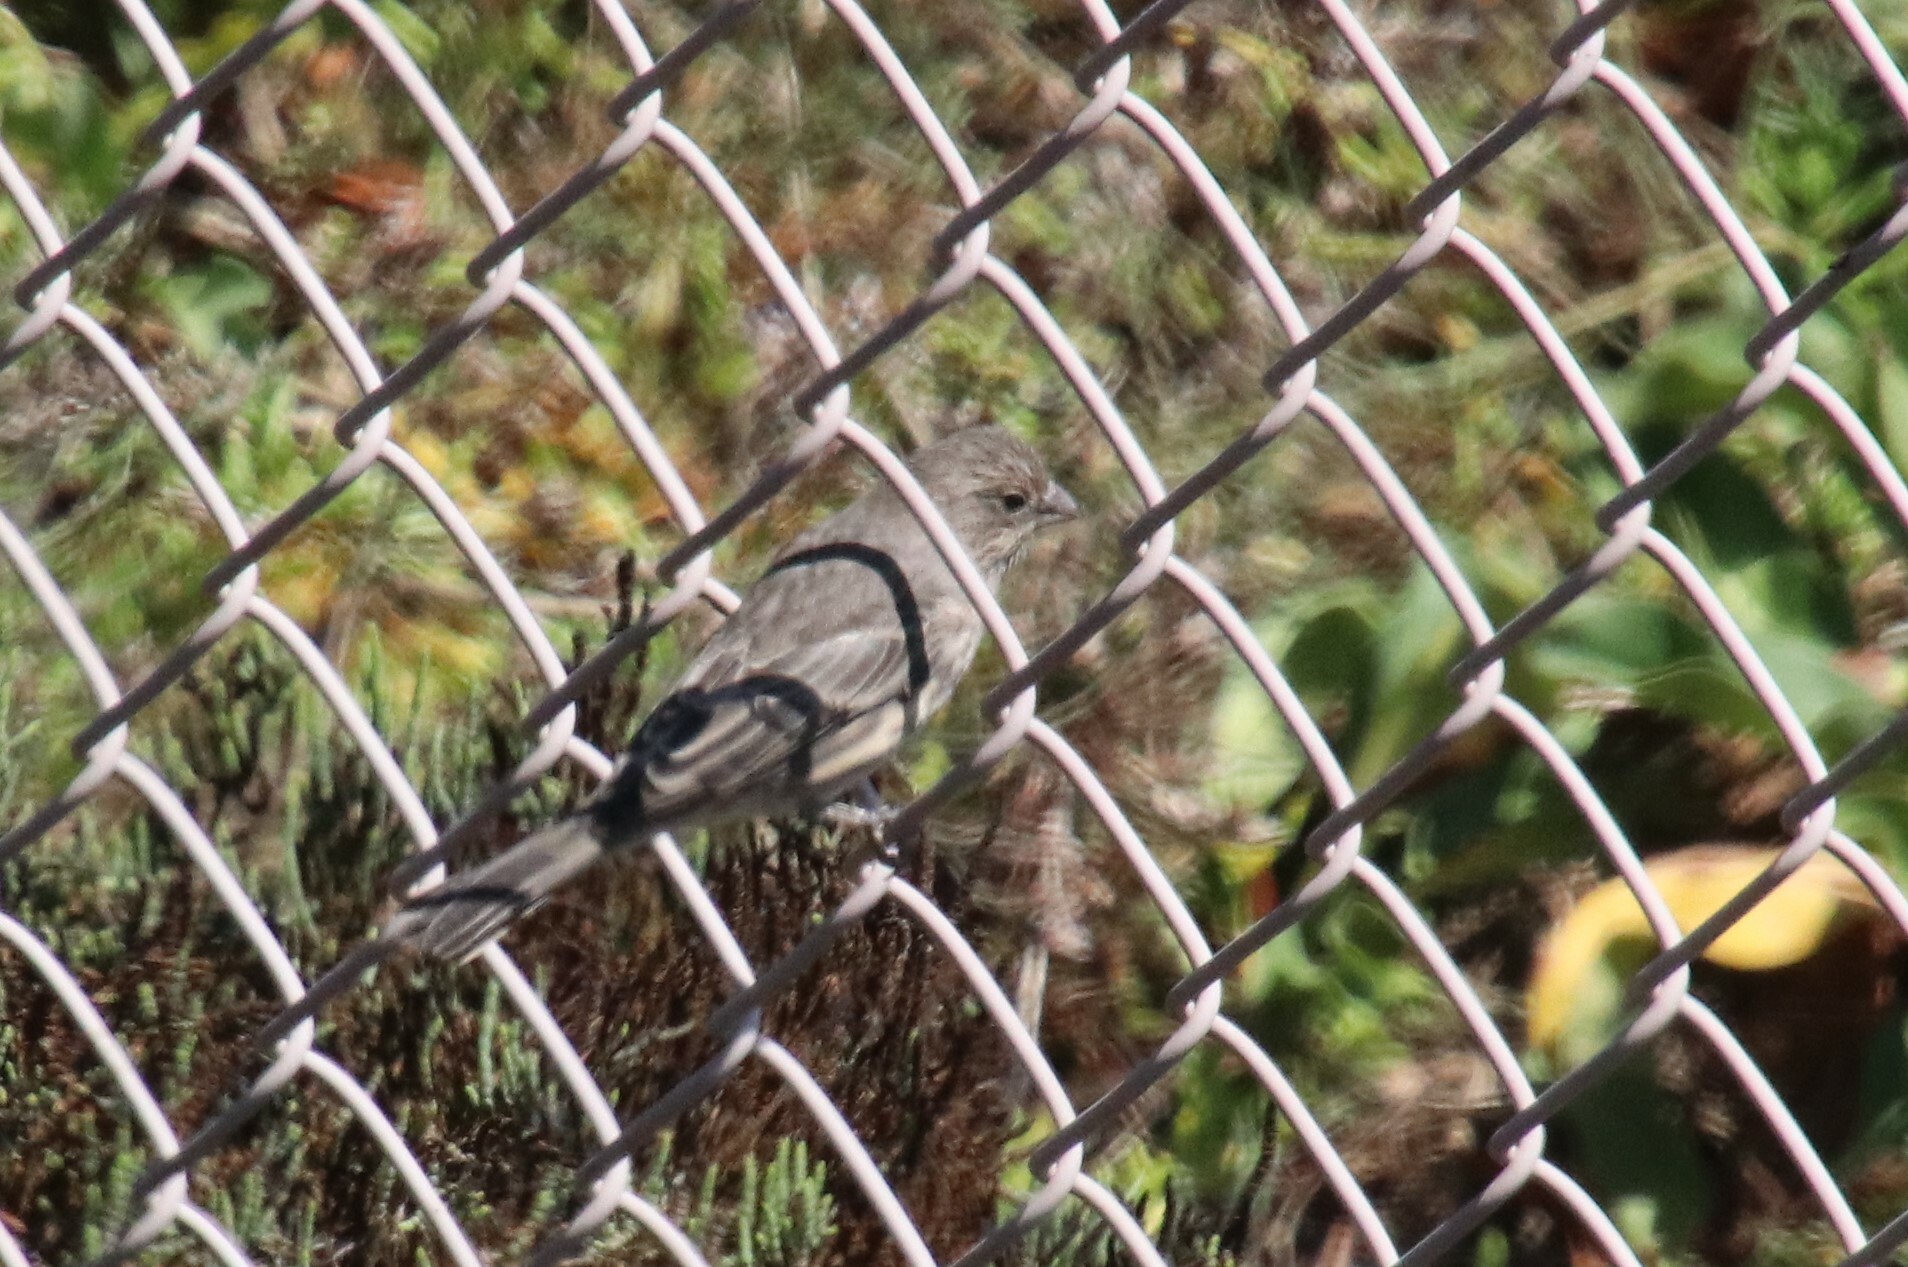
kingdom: Animalia
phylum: Chordata
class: Aves
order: Passeriformes
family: Fringillidae
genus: Haemorhous
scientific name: Haemorhous mexicanus
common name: House finch
